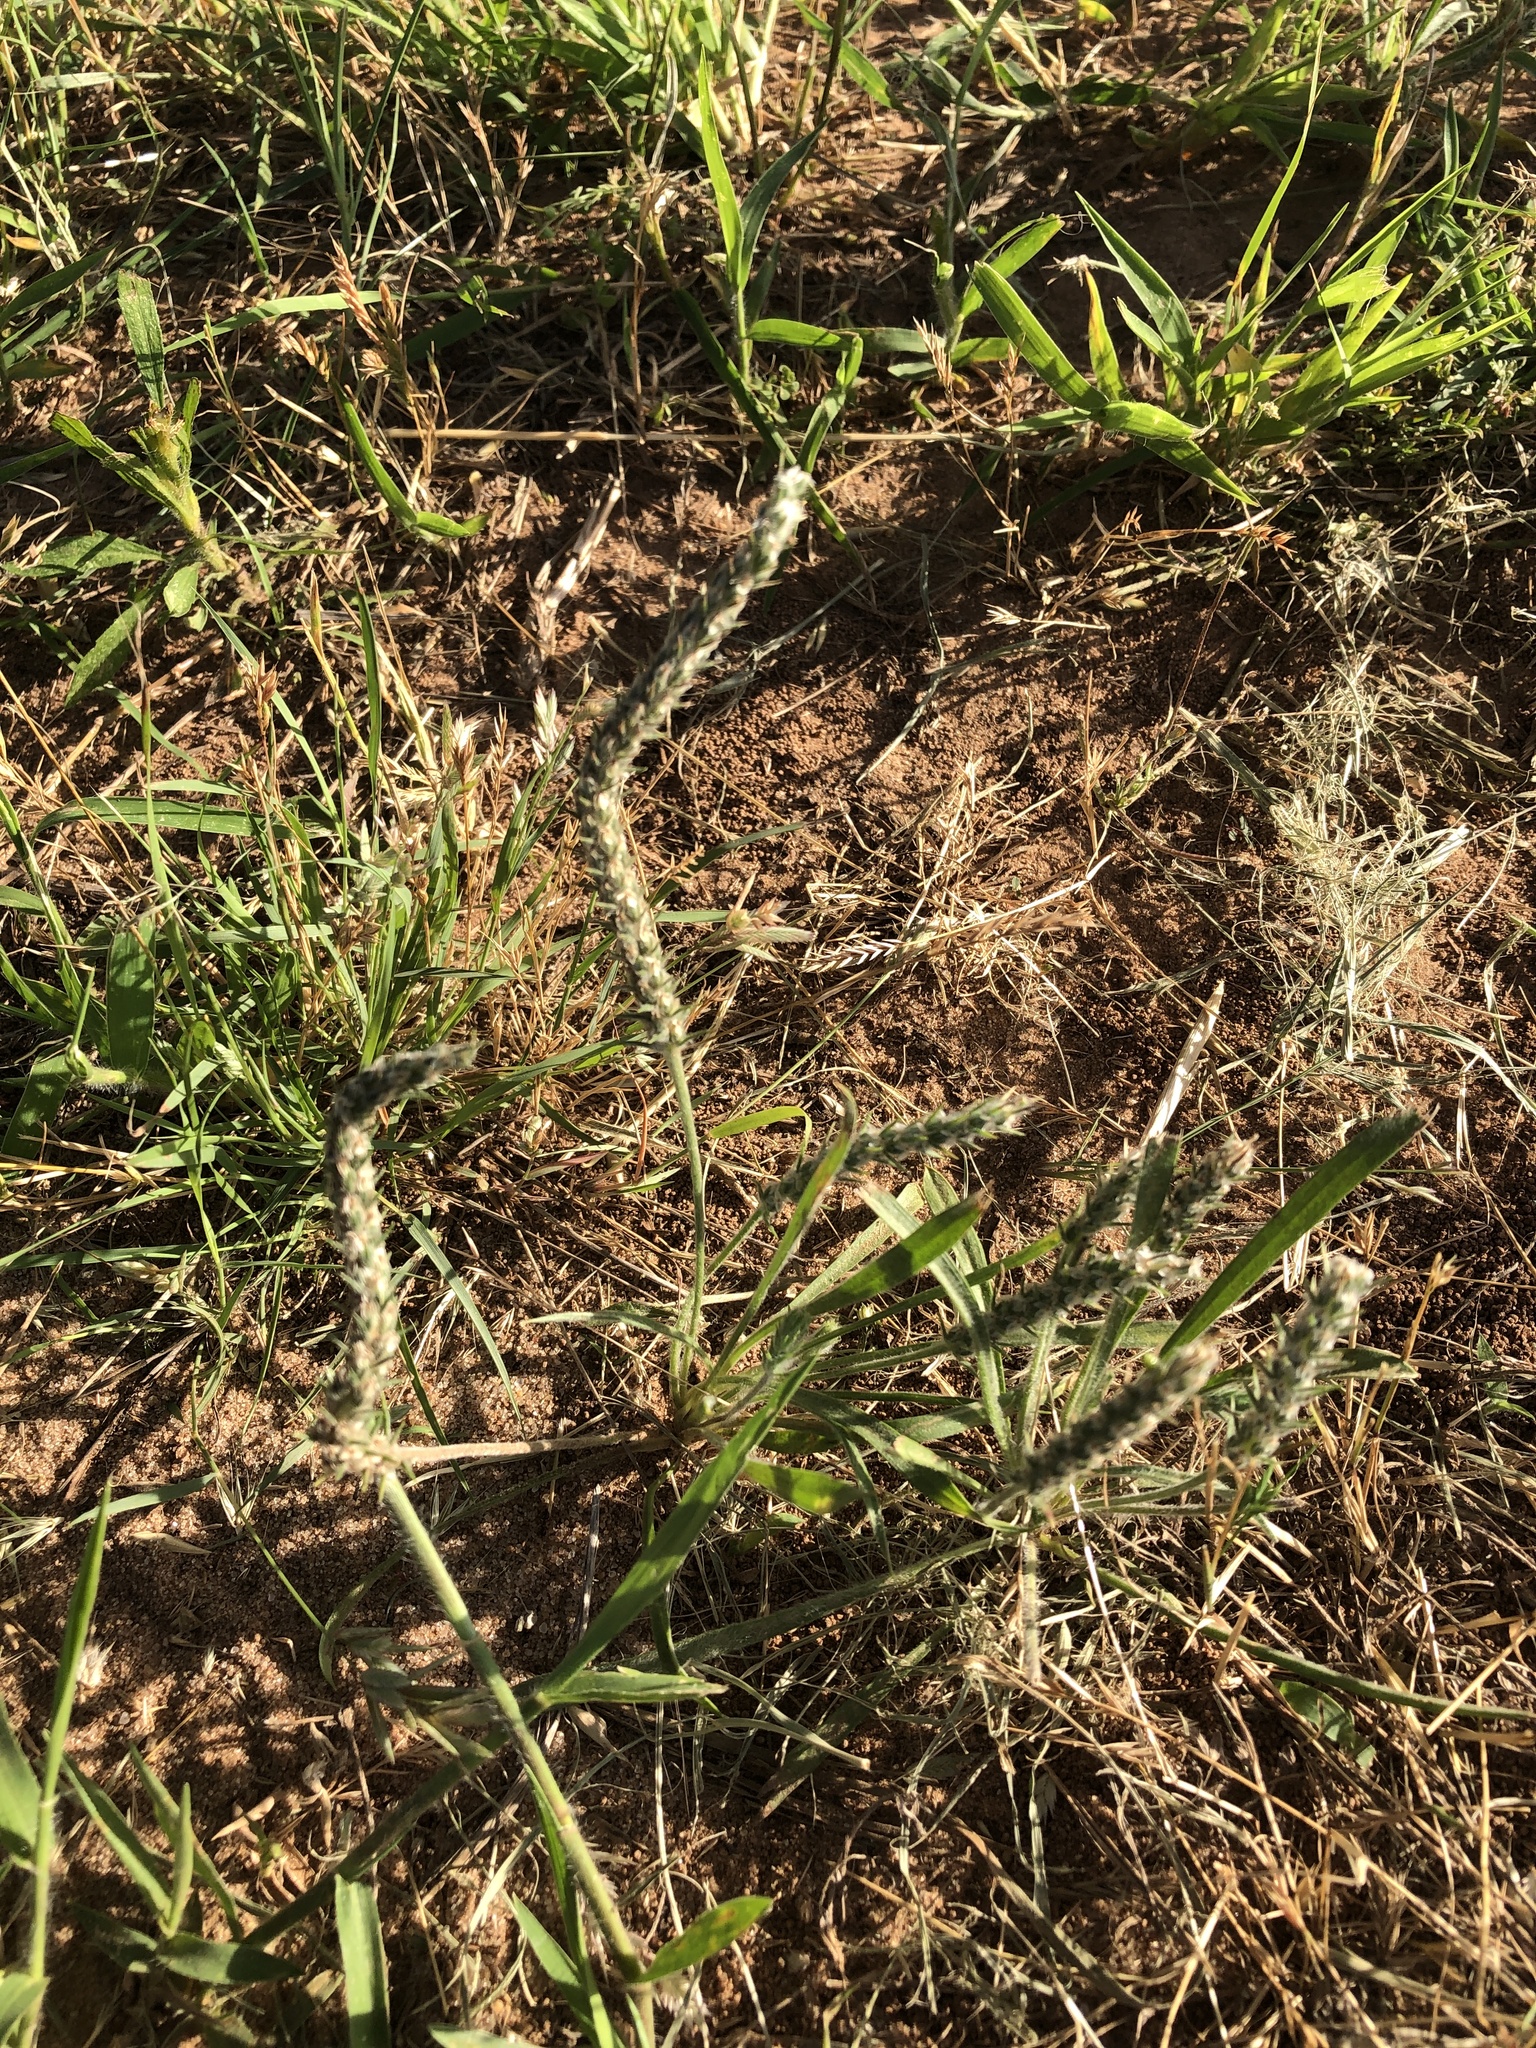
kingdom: Plantae
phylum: Tracheophyta
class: Magnoliopsida
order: Lamiales
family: Plantaginaceae
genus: Plantago
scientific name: Plantago patagonica
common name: Patagonia indian-wheat
